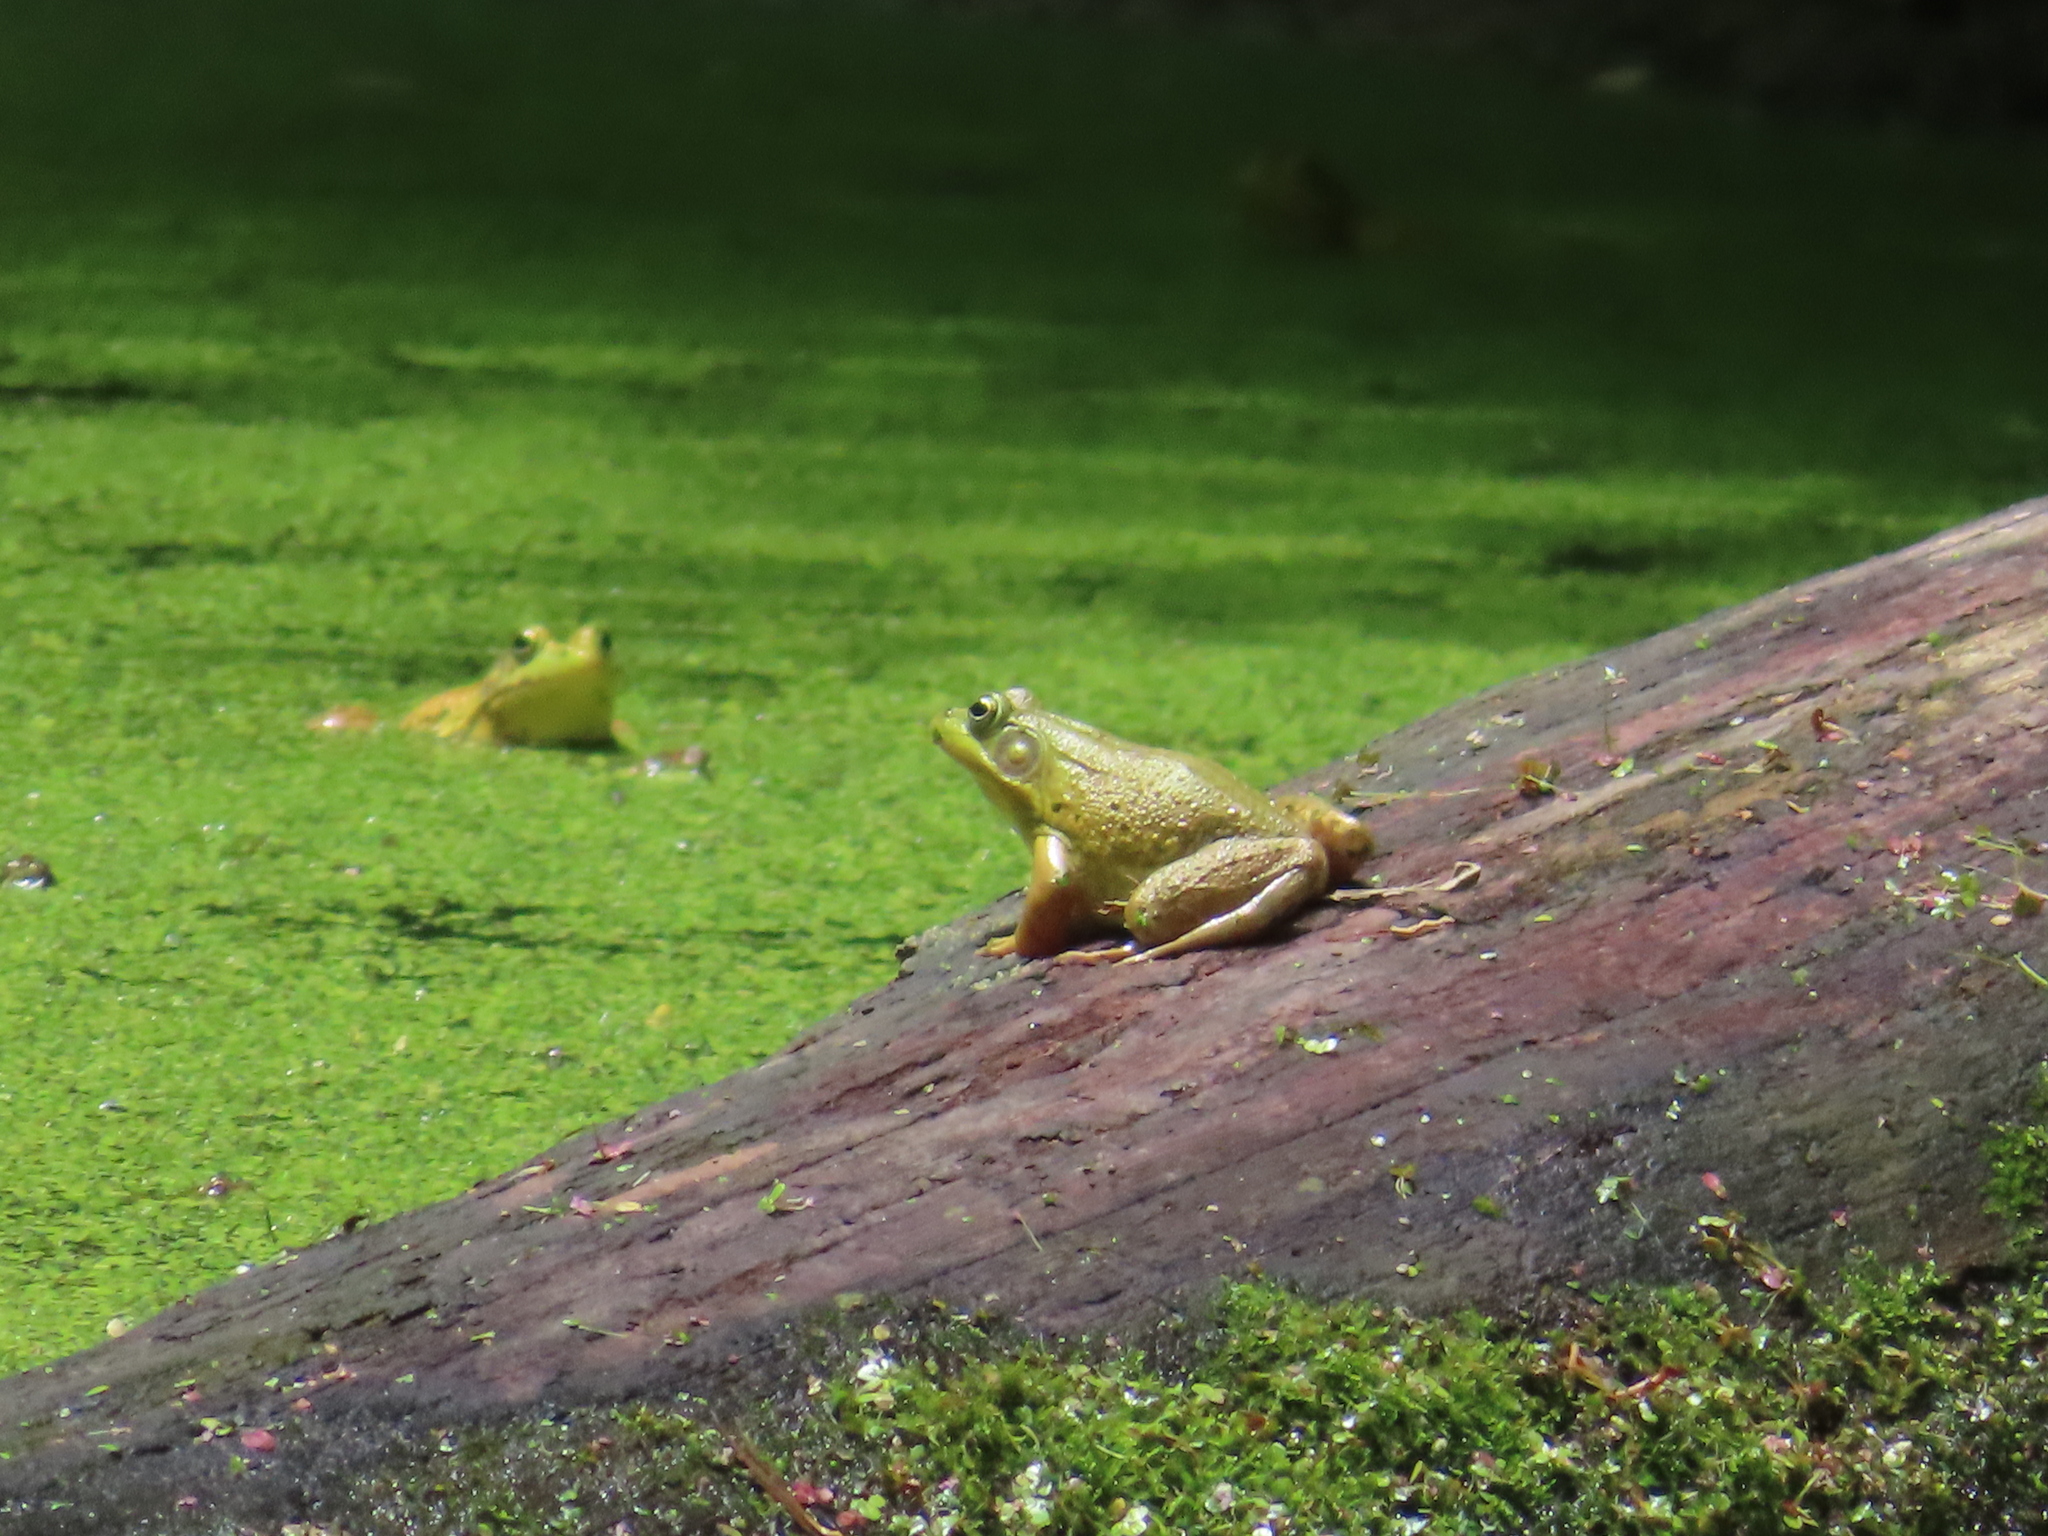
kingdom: Animalia
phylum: Chordata
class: Amphibia
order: Anura
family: Ranidae
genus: Lithobates
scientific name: Lithobates clamitans
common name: Green frog
